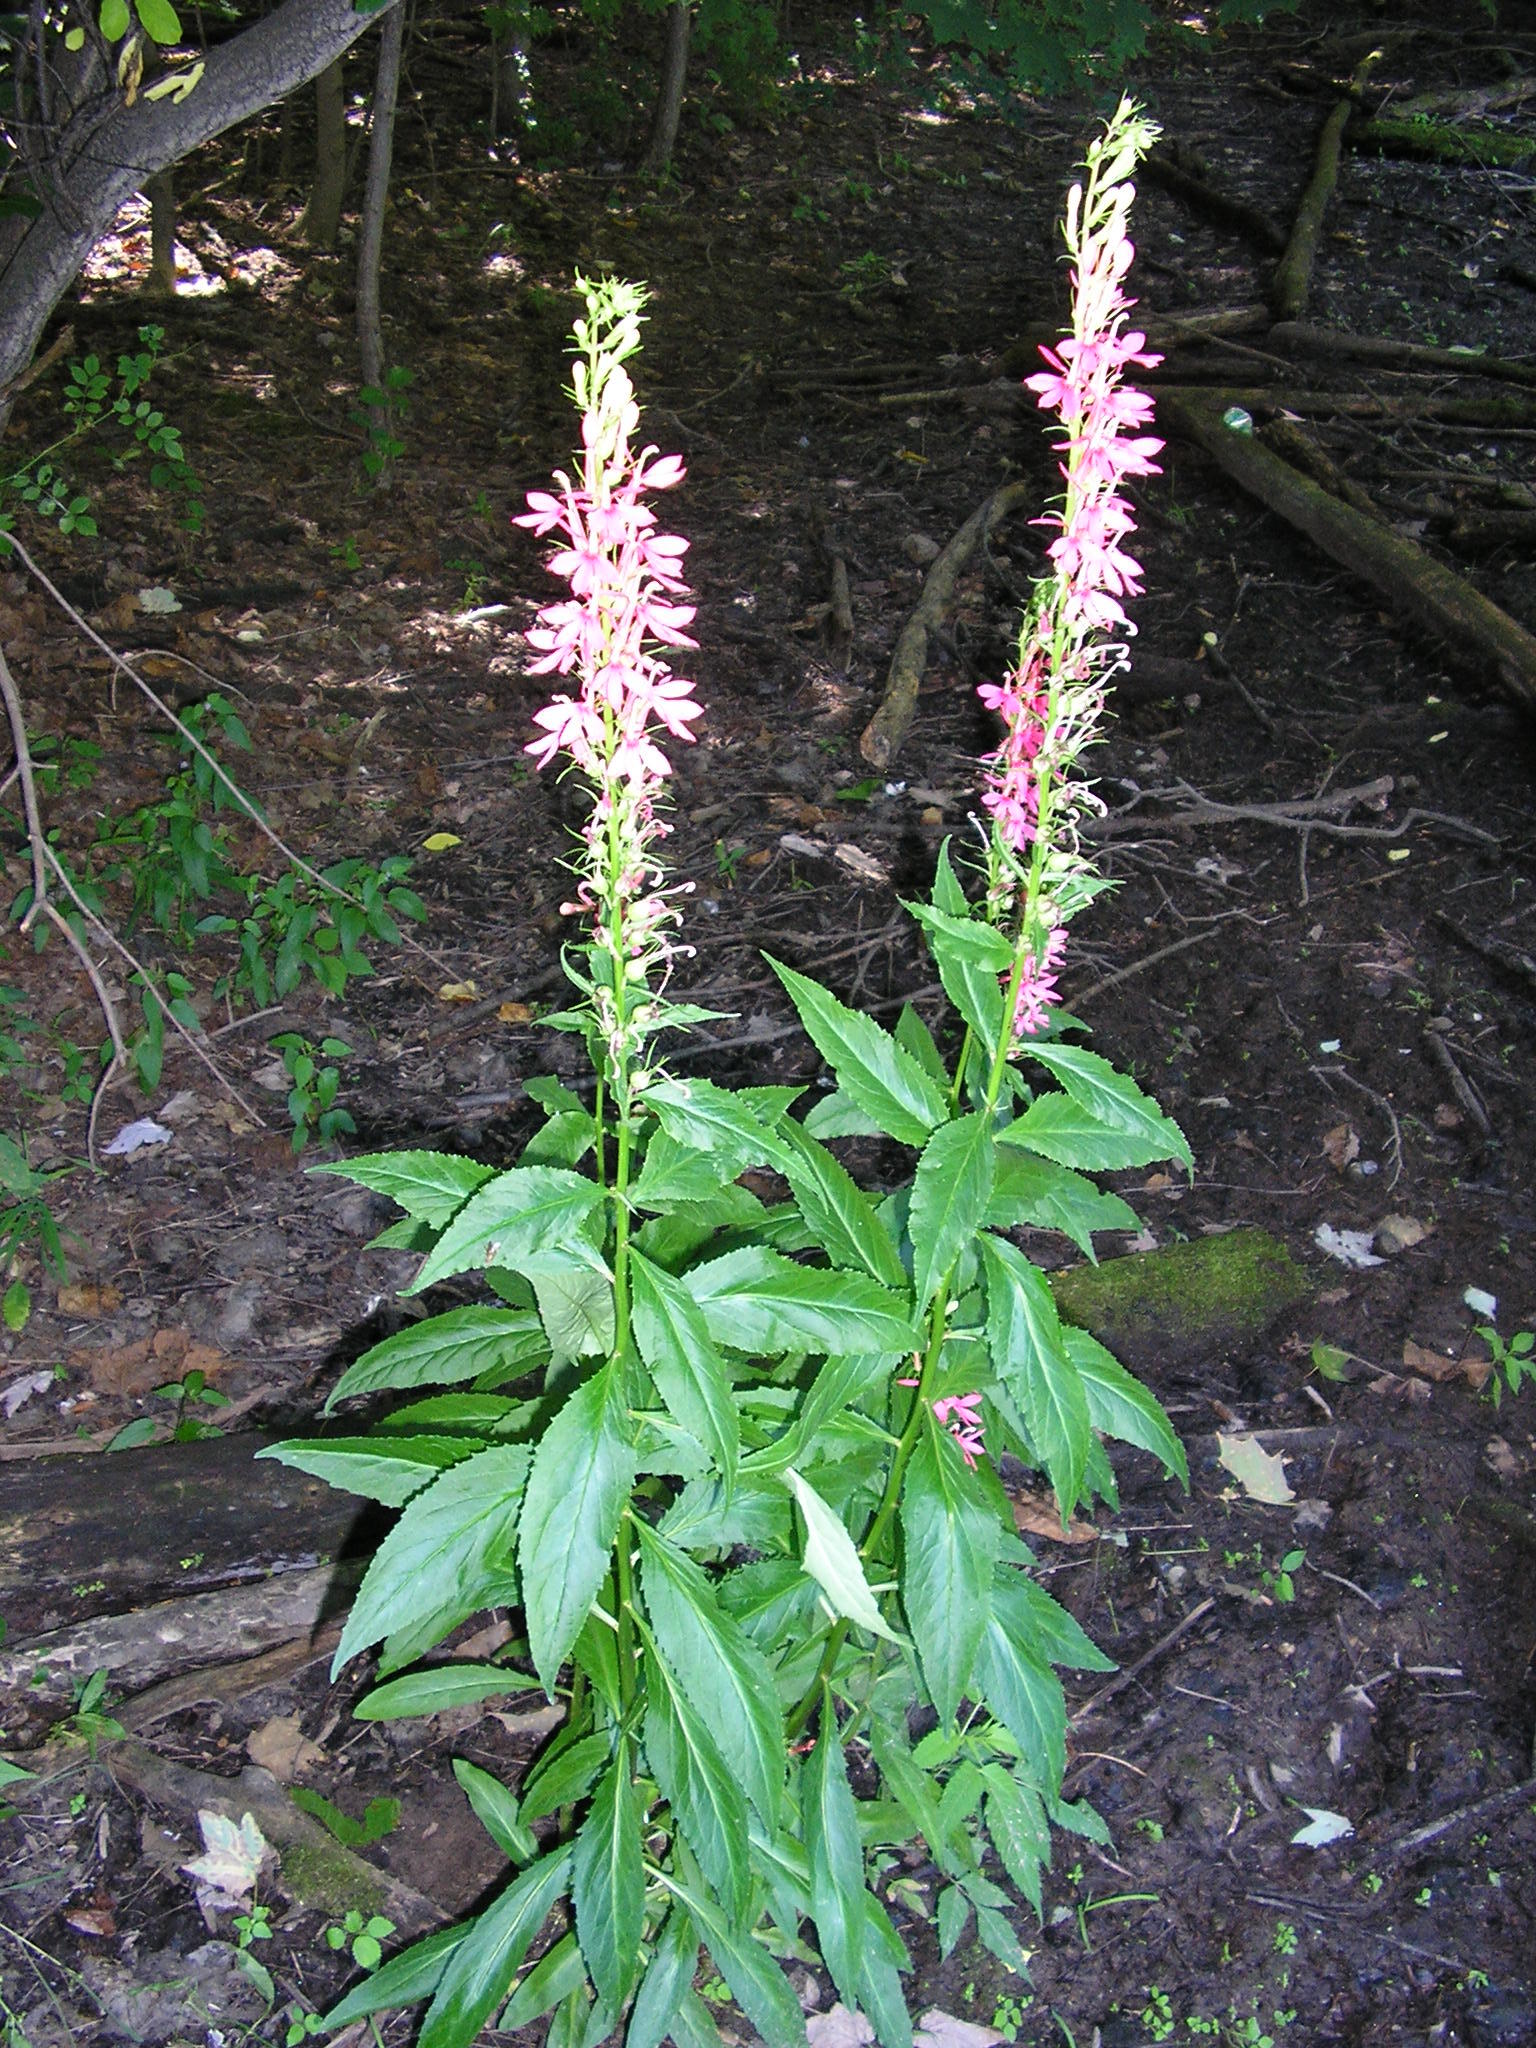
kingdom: Plantae
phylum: Tracheophyta
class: Magnoliopsida
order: Asterales
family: Campanulaceae
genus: Lobelia
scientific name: Lobelia cardinalis
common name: Cardinal flower
